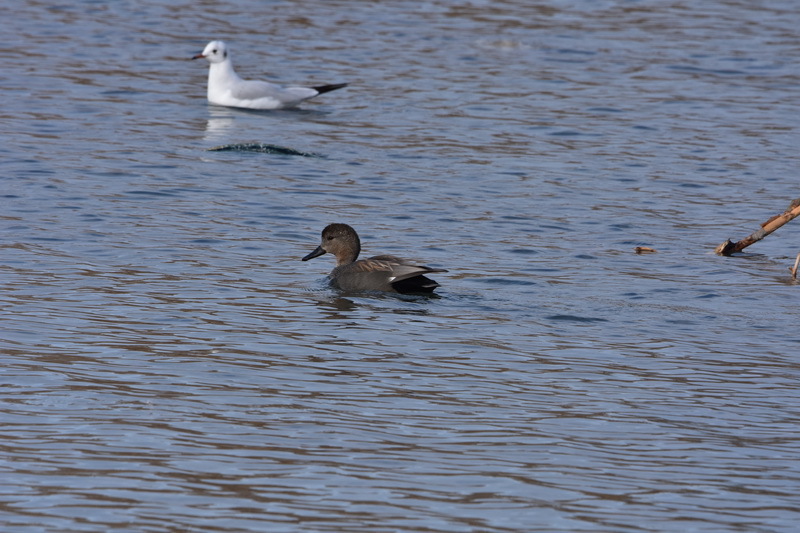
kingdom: Animalia
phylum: Chordata
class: Aves
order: Anseriformes
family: Anatidae
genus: Mareca
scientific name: Mareca strepera
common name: Gadwall
